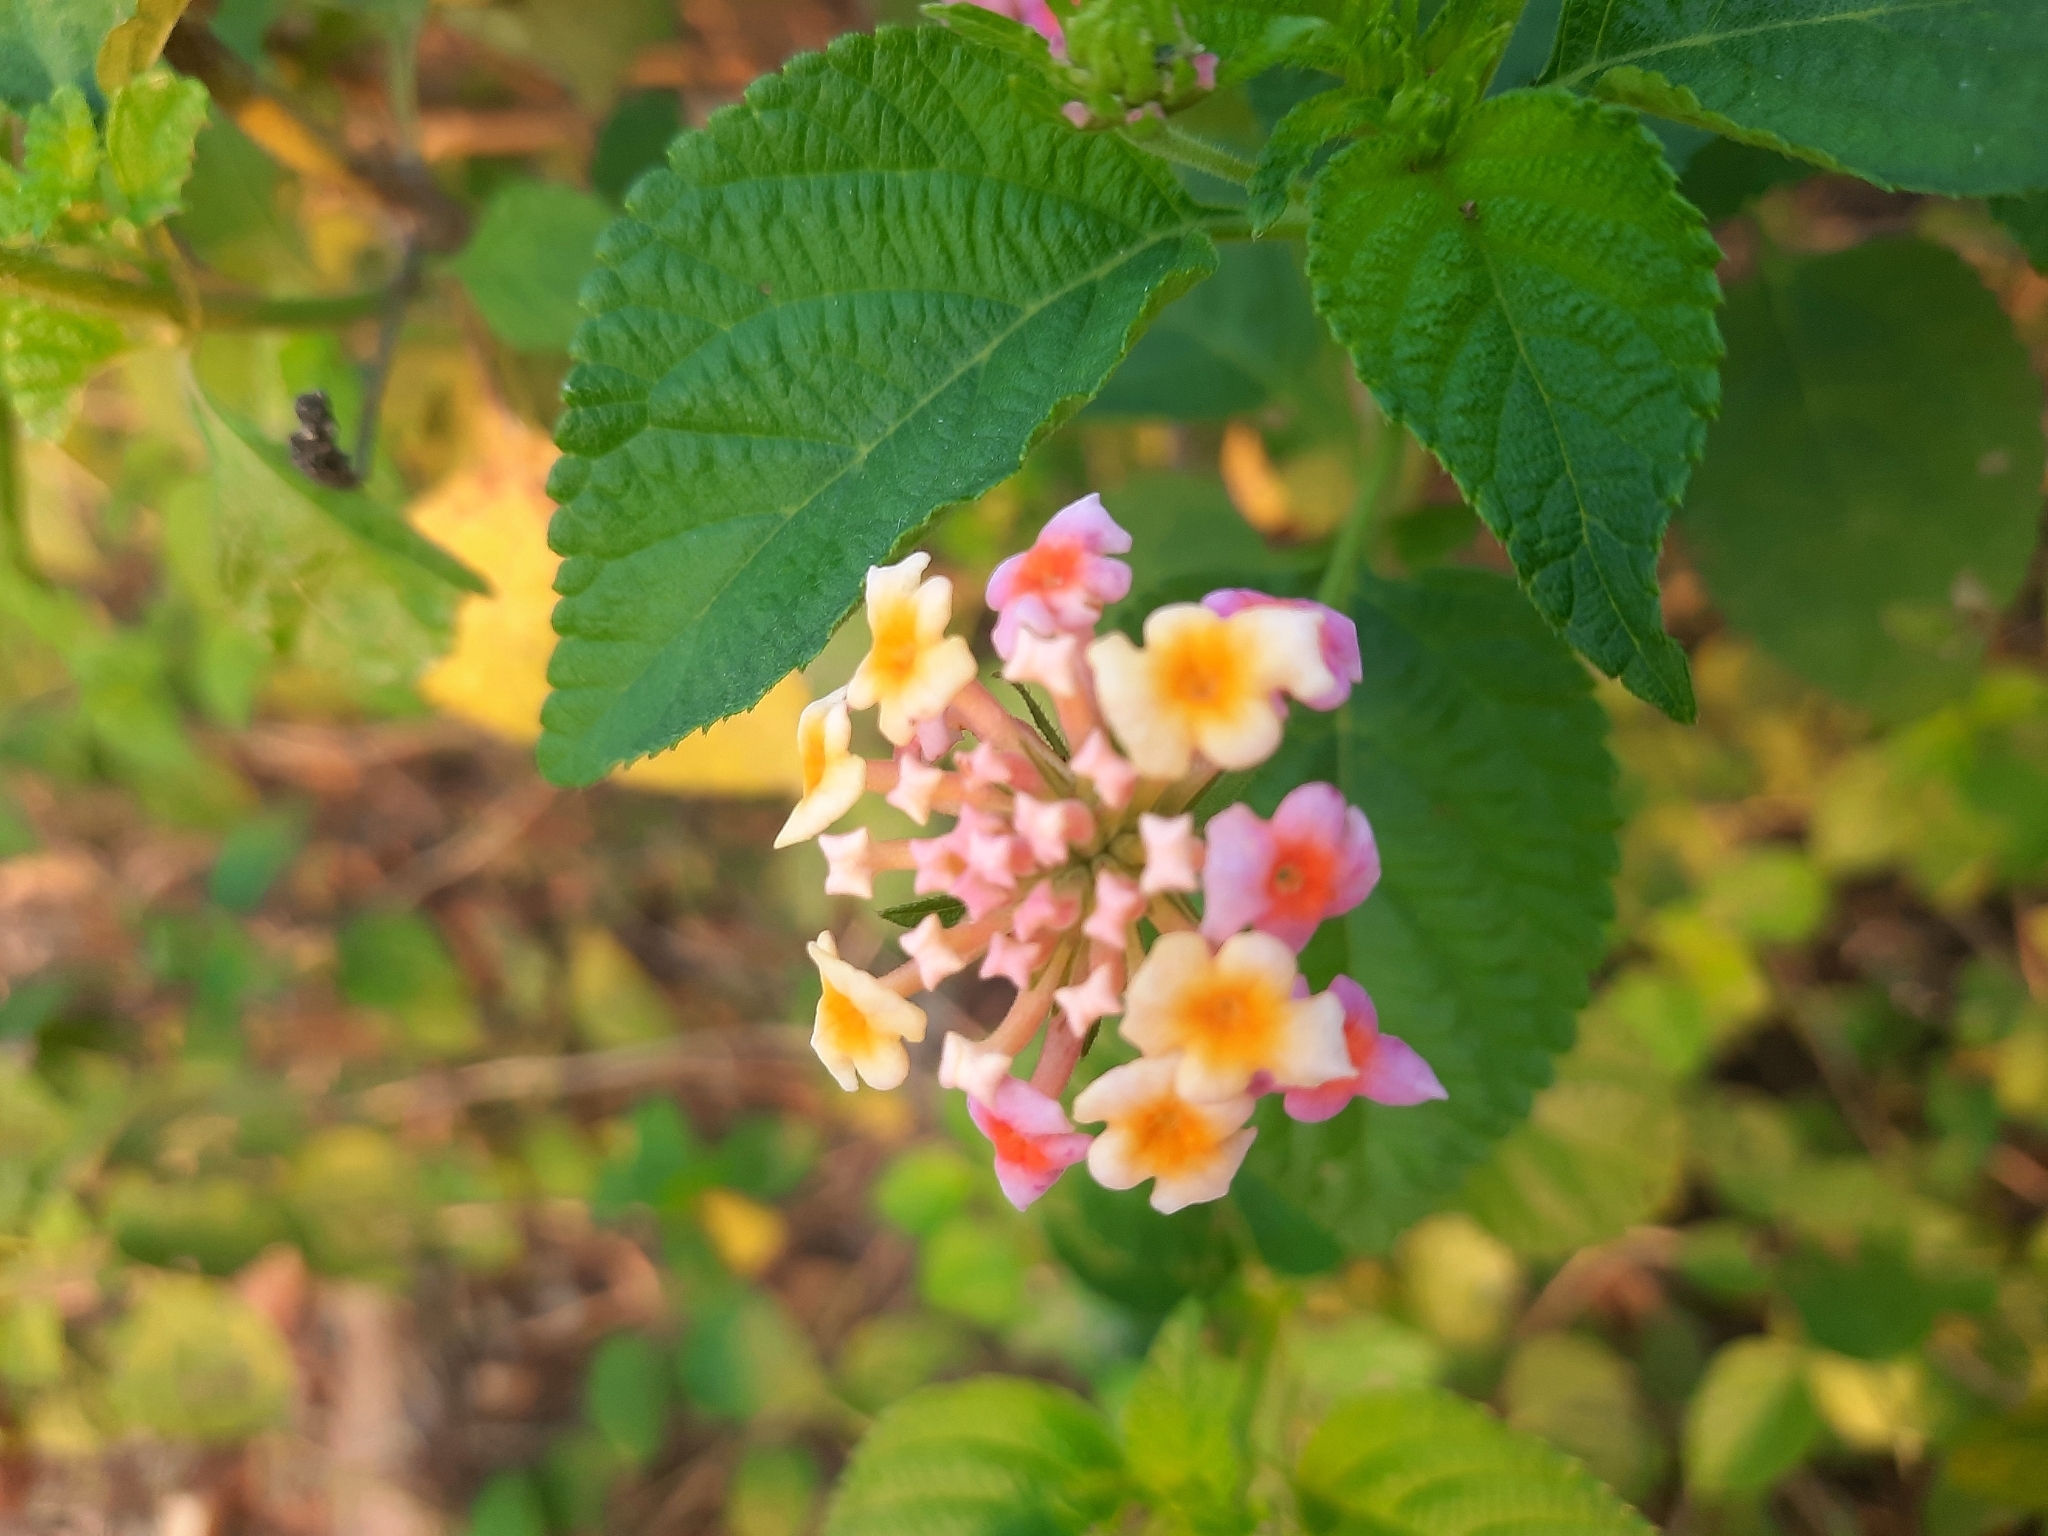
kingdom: Plantae
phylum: Tracheophyta
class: Magnoliopsida
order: Lamiales
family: Verbenaceae
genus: Lantana
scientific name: Lantana camara
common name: Lantana
